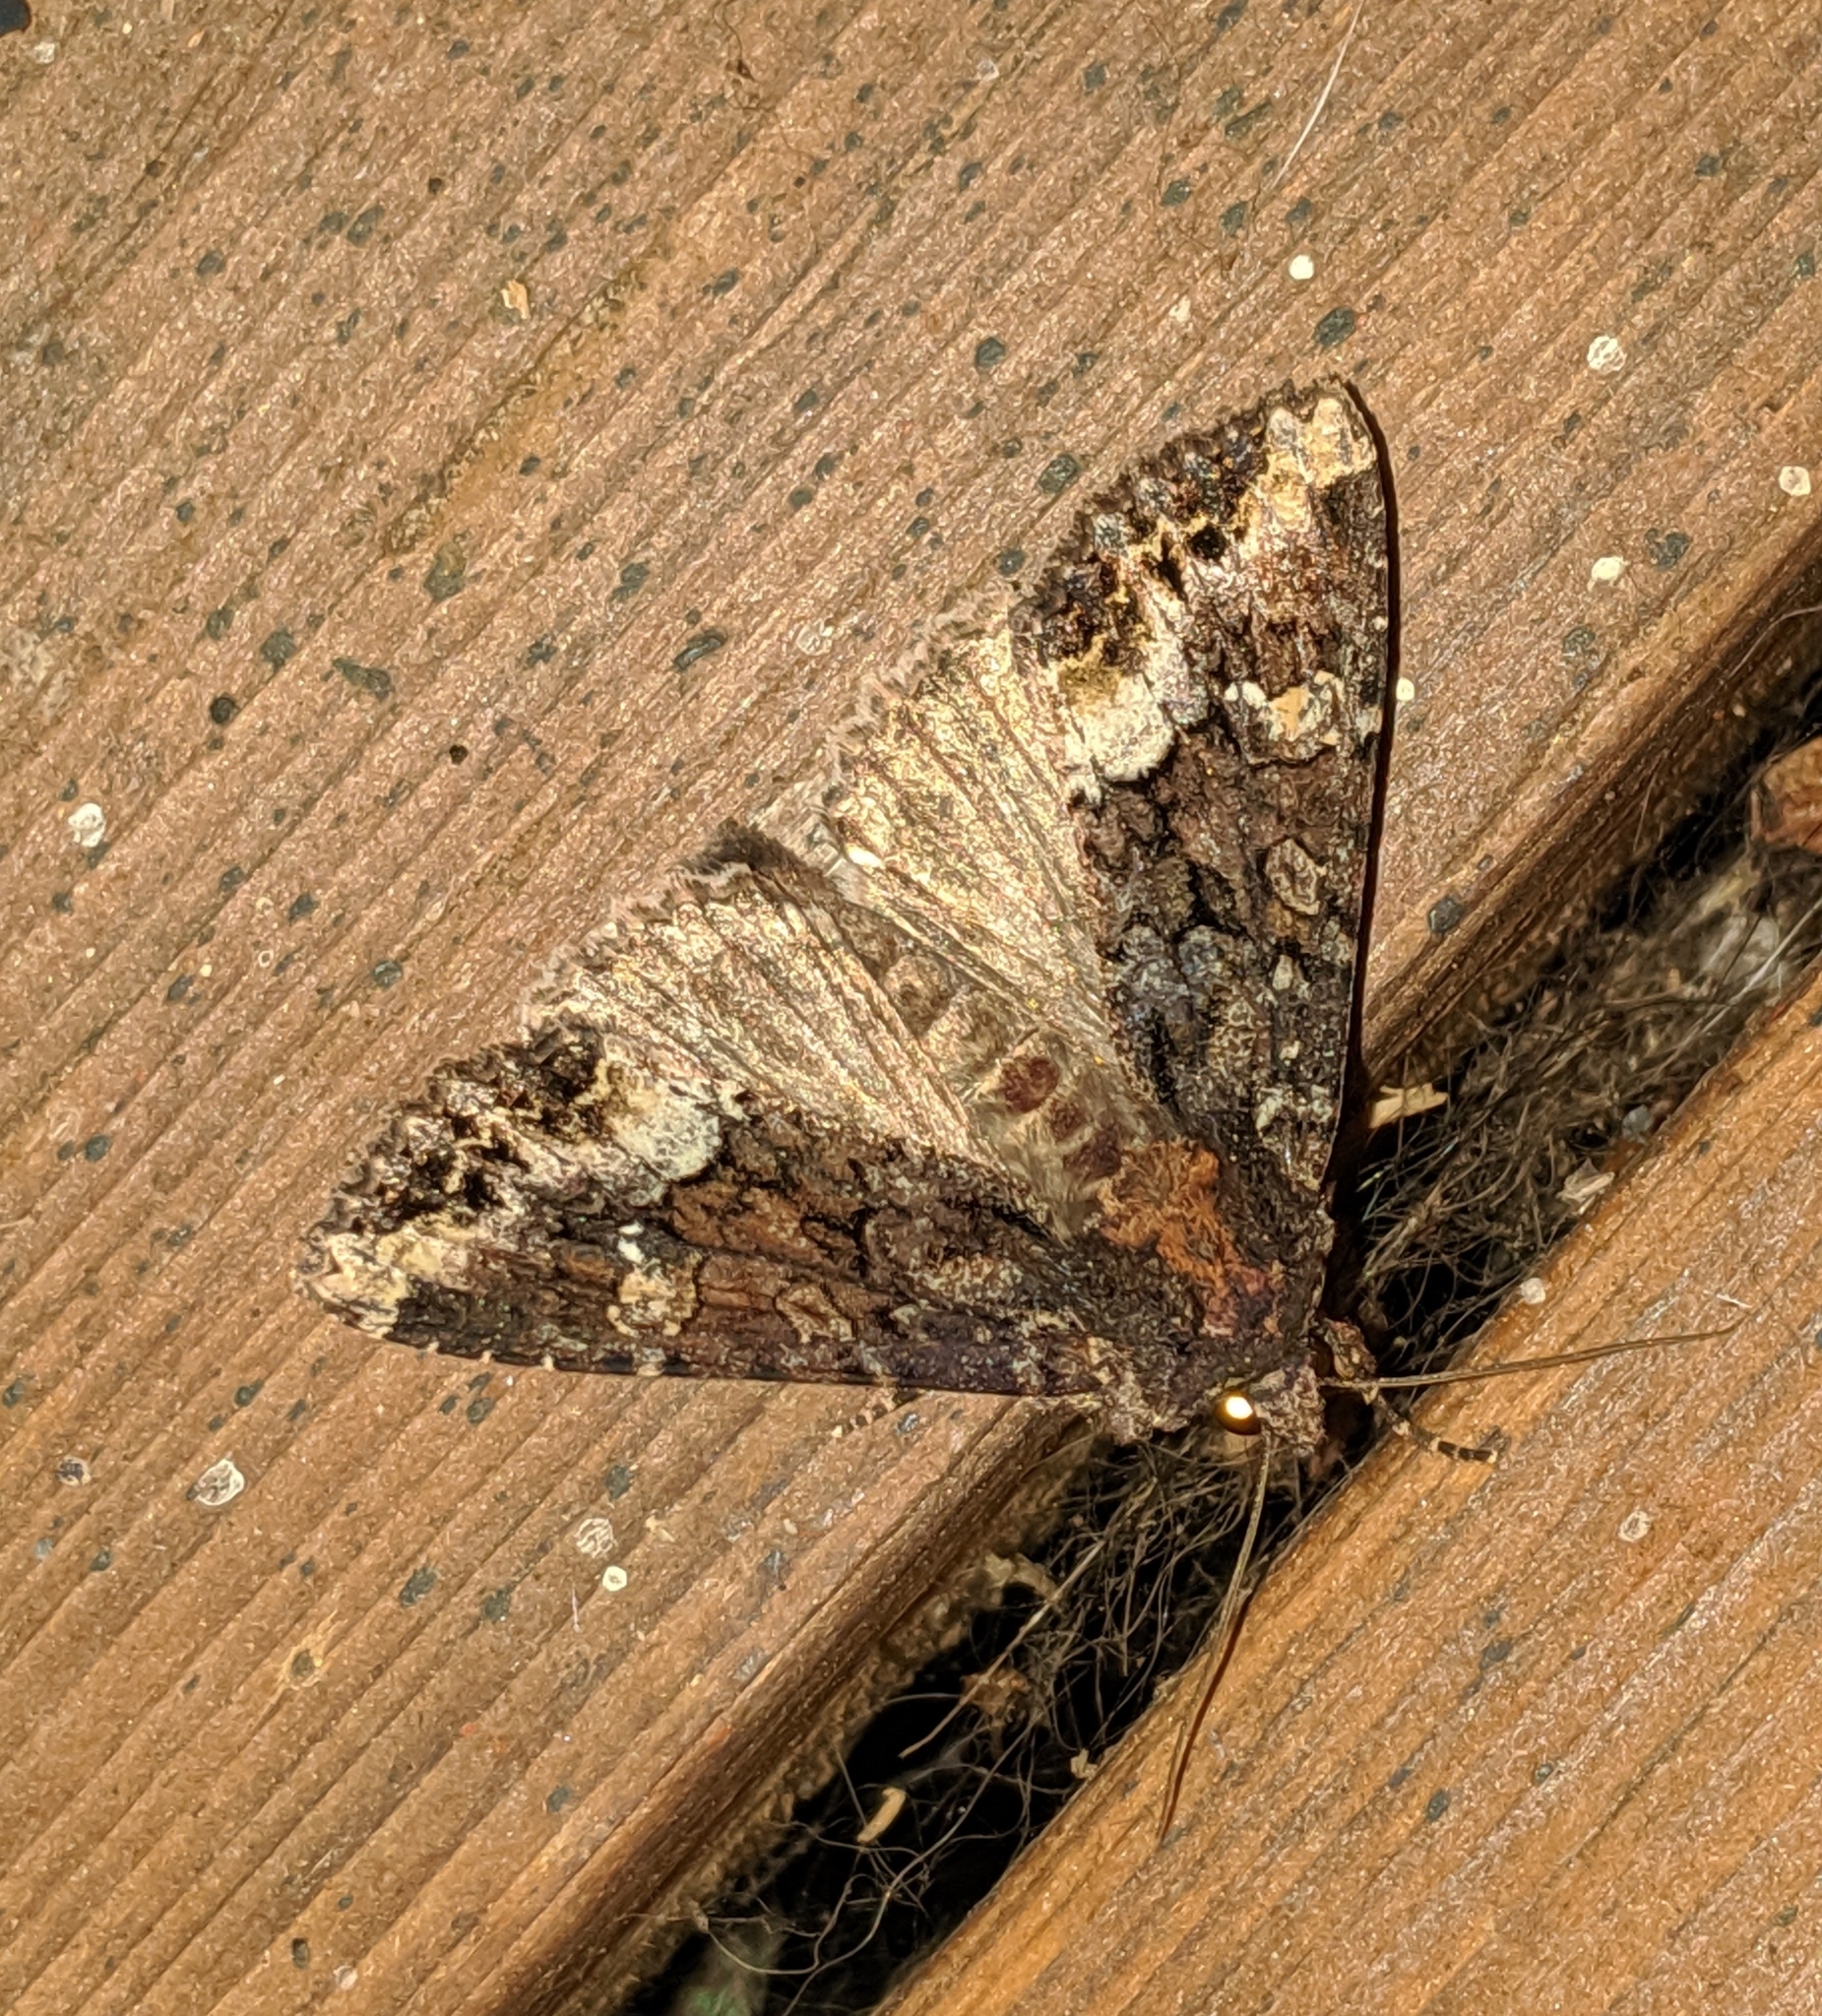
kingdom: Animalia
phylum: Arthropoda
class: Insecta
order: Lepidoptera
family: Noctuidae
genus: Apamea
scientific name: Apamea amputatrix
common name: Yellow-headed cutworm moth
